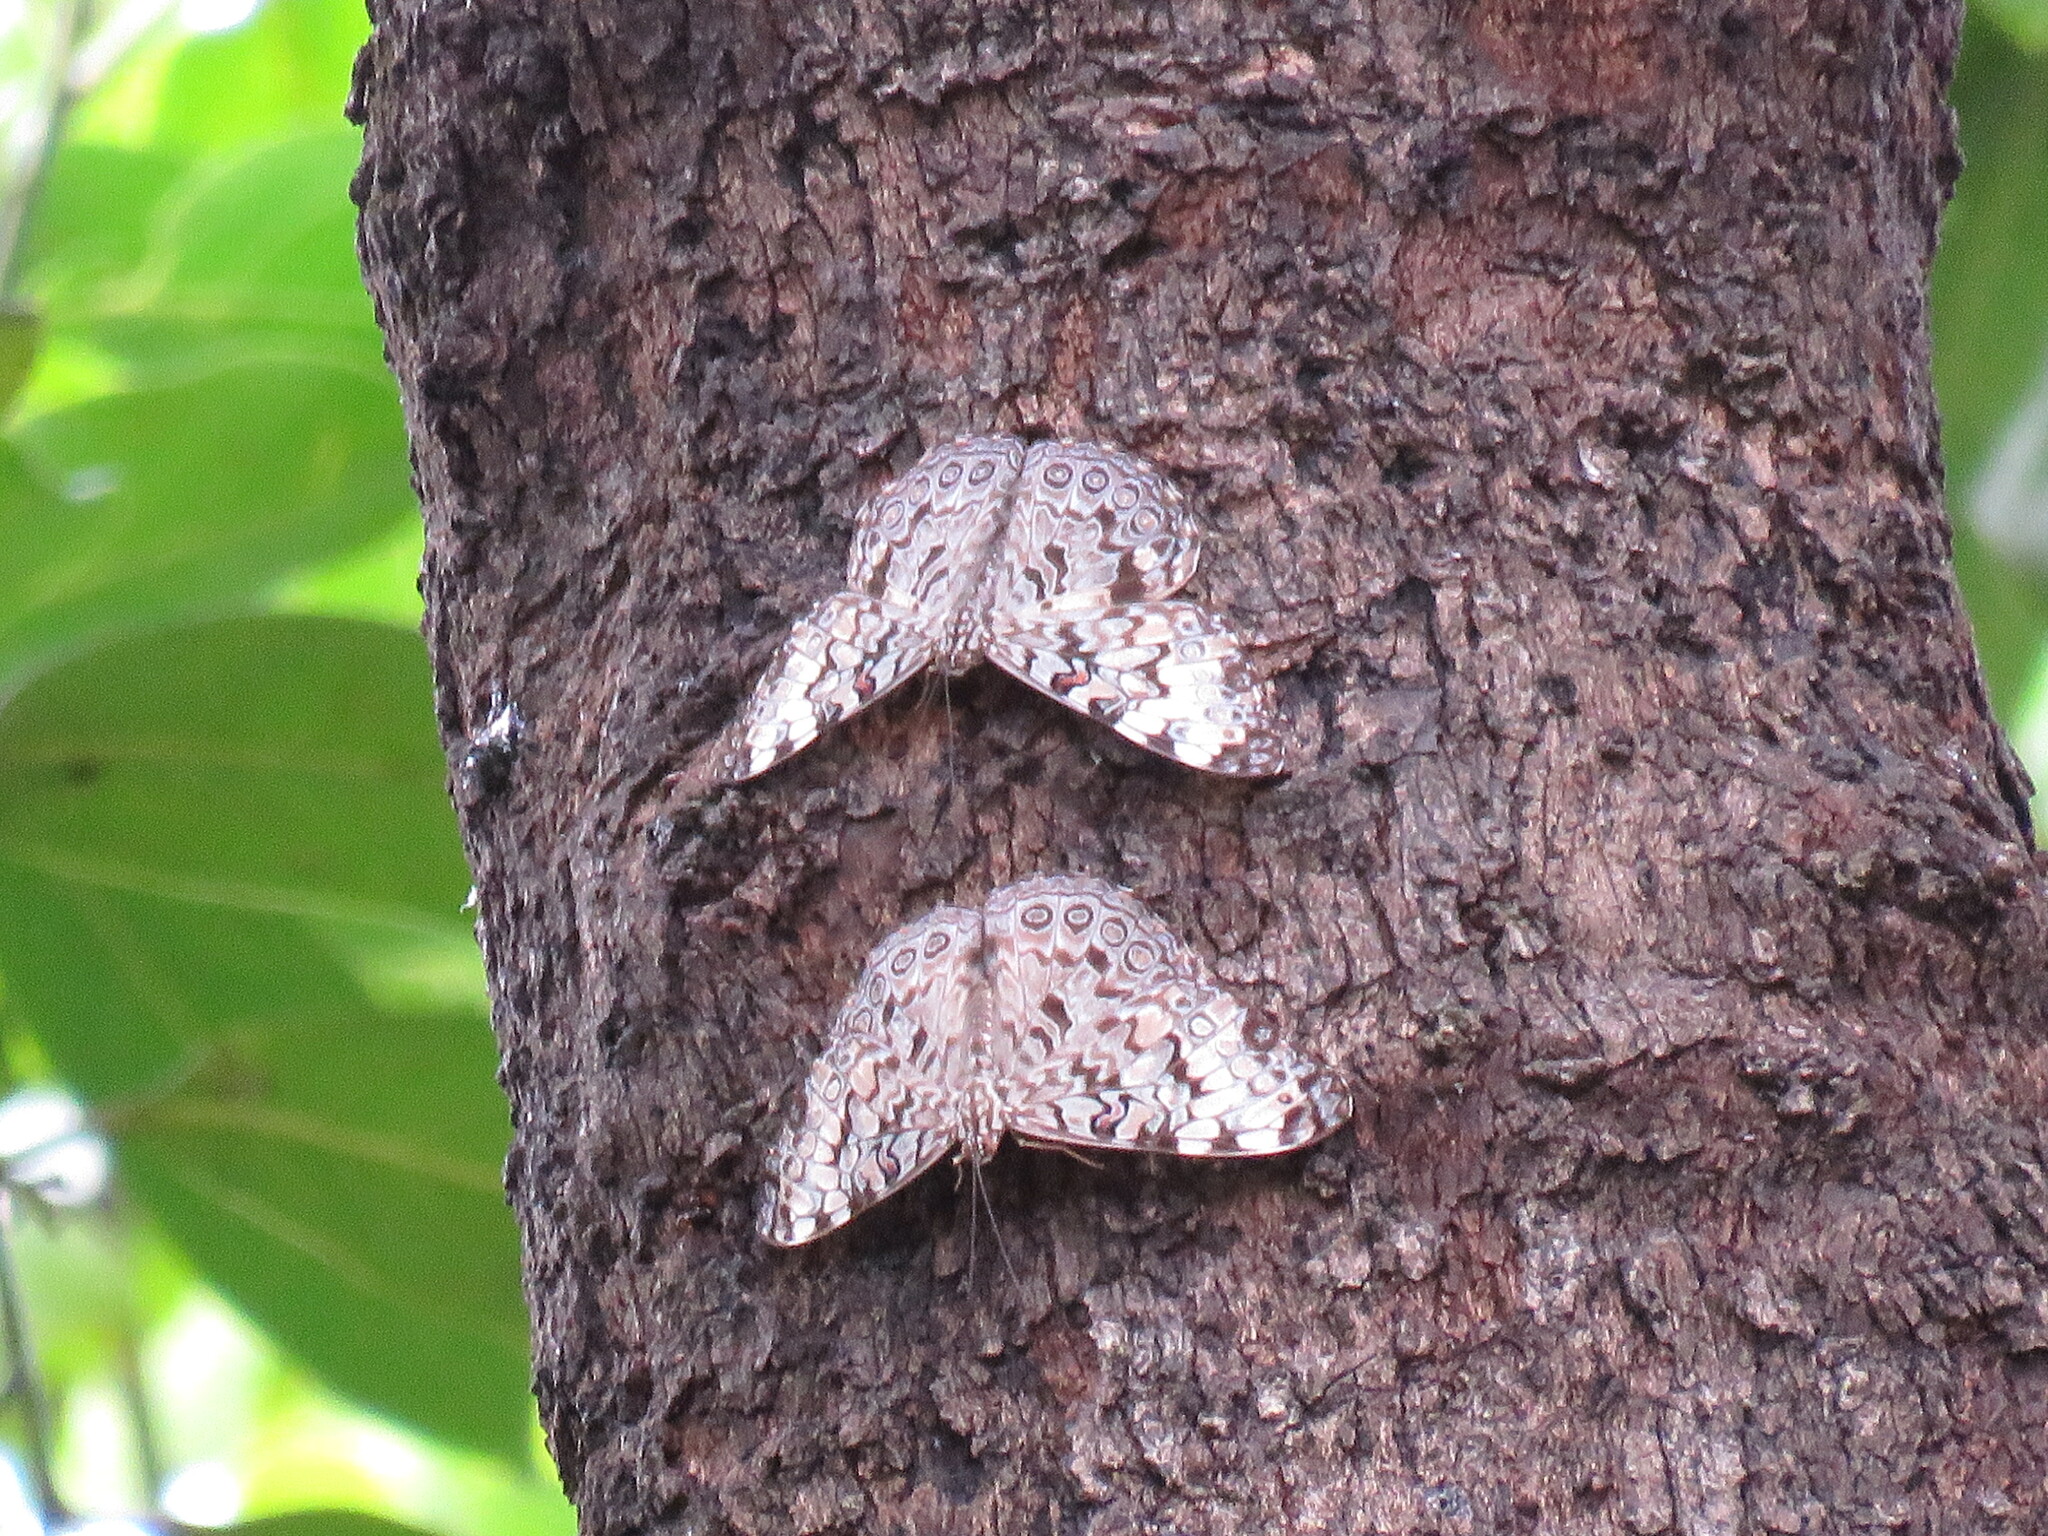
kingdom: Animalia
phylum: Arthropoda
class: Insecta
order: Lepidoptera
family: Nymphalidae
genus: Hamadryas
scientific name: Hamadryas guatemalena
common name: Guatemalan cracker
